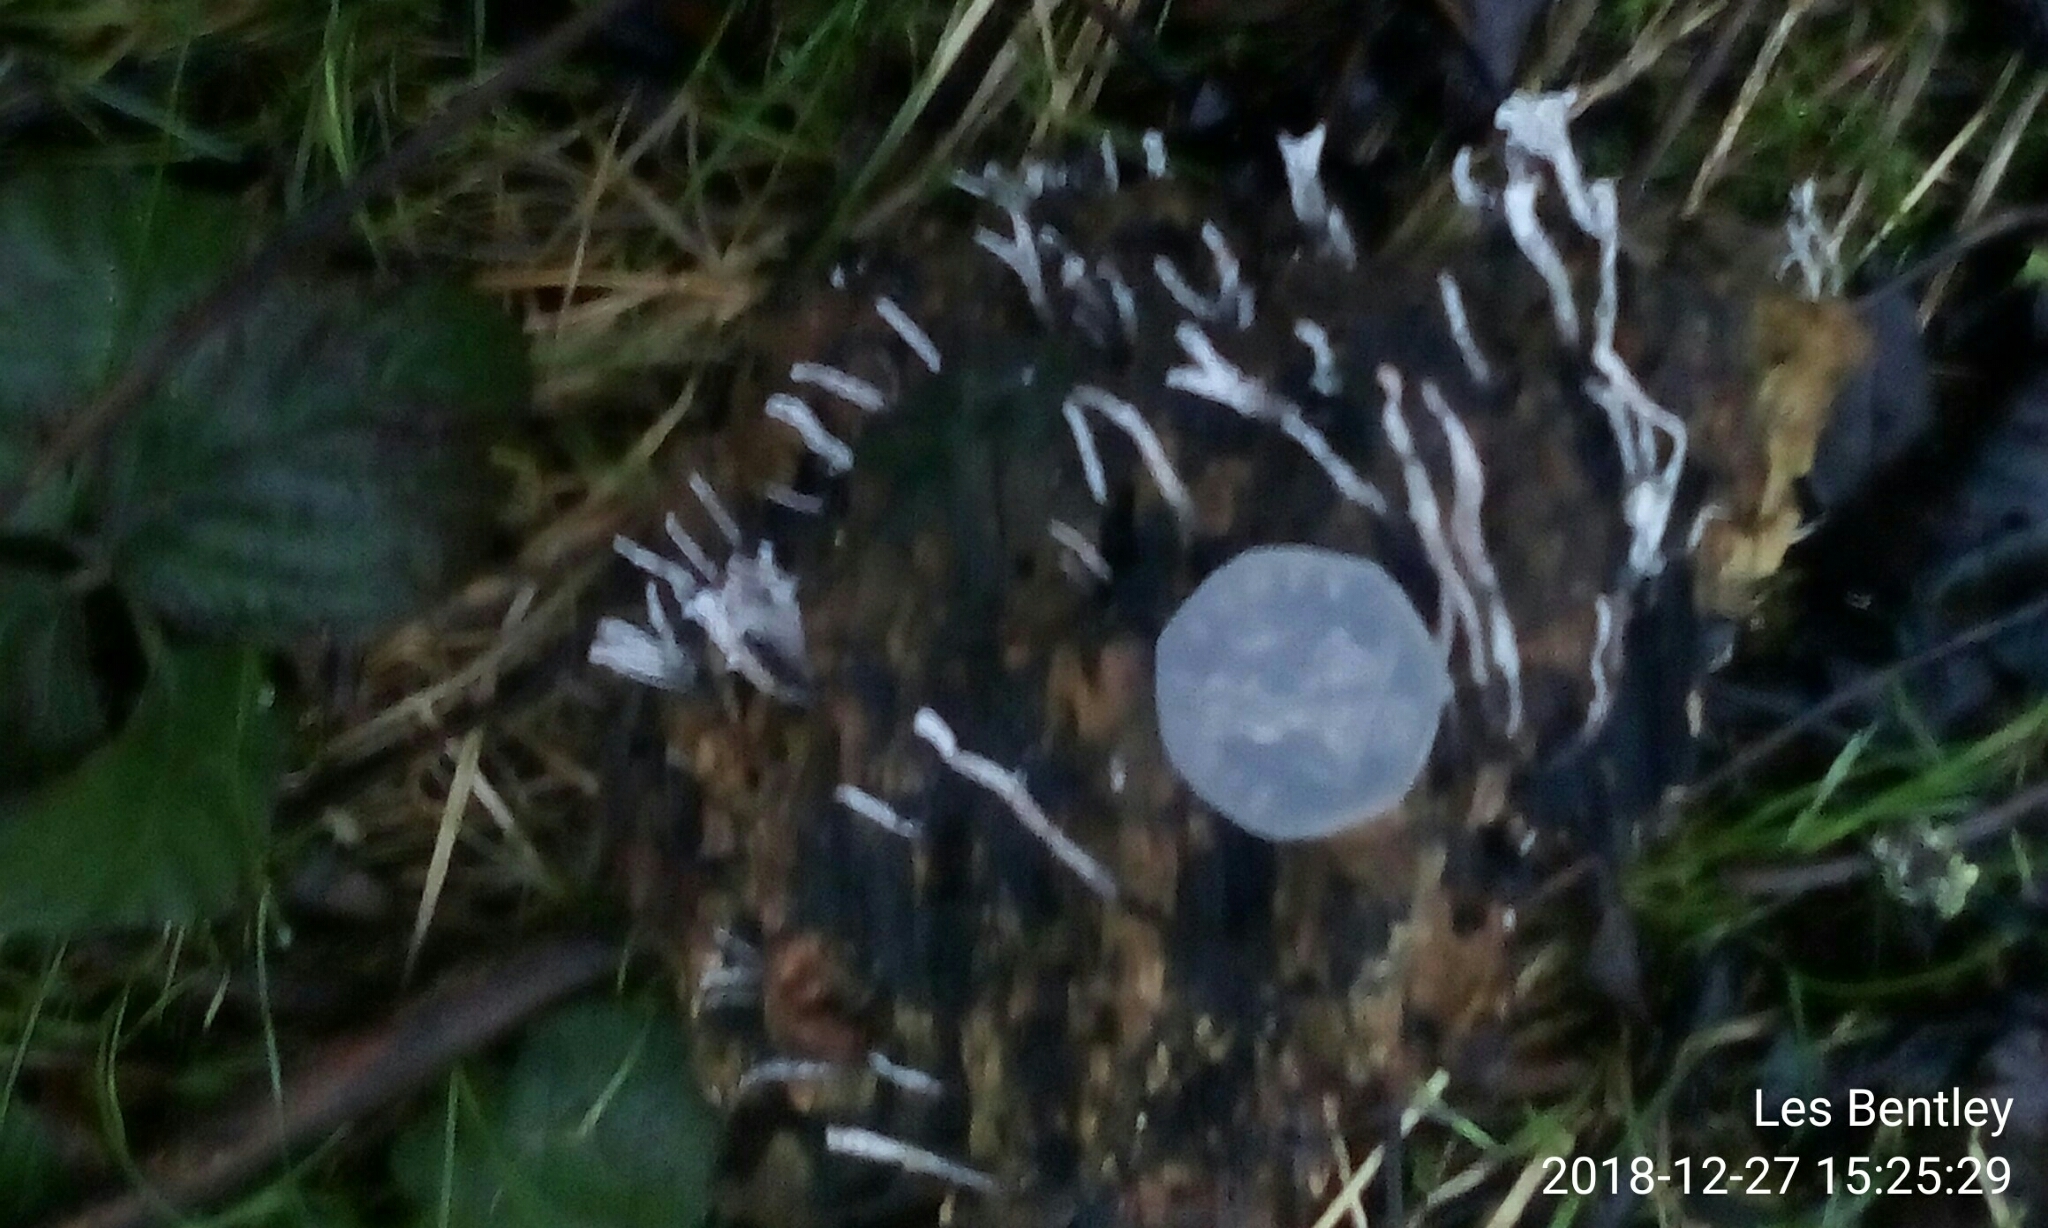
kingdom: Fungi
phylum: Ascomycota
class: Sordariomycetes
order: Xylariales
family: Xylariaceae
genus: Xylaria
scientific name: Xylaria hypoxylon
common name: Candle-snuff fungus
